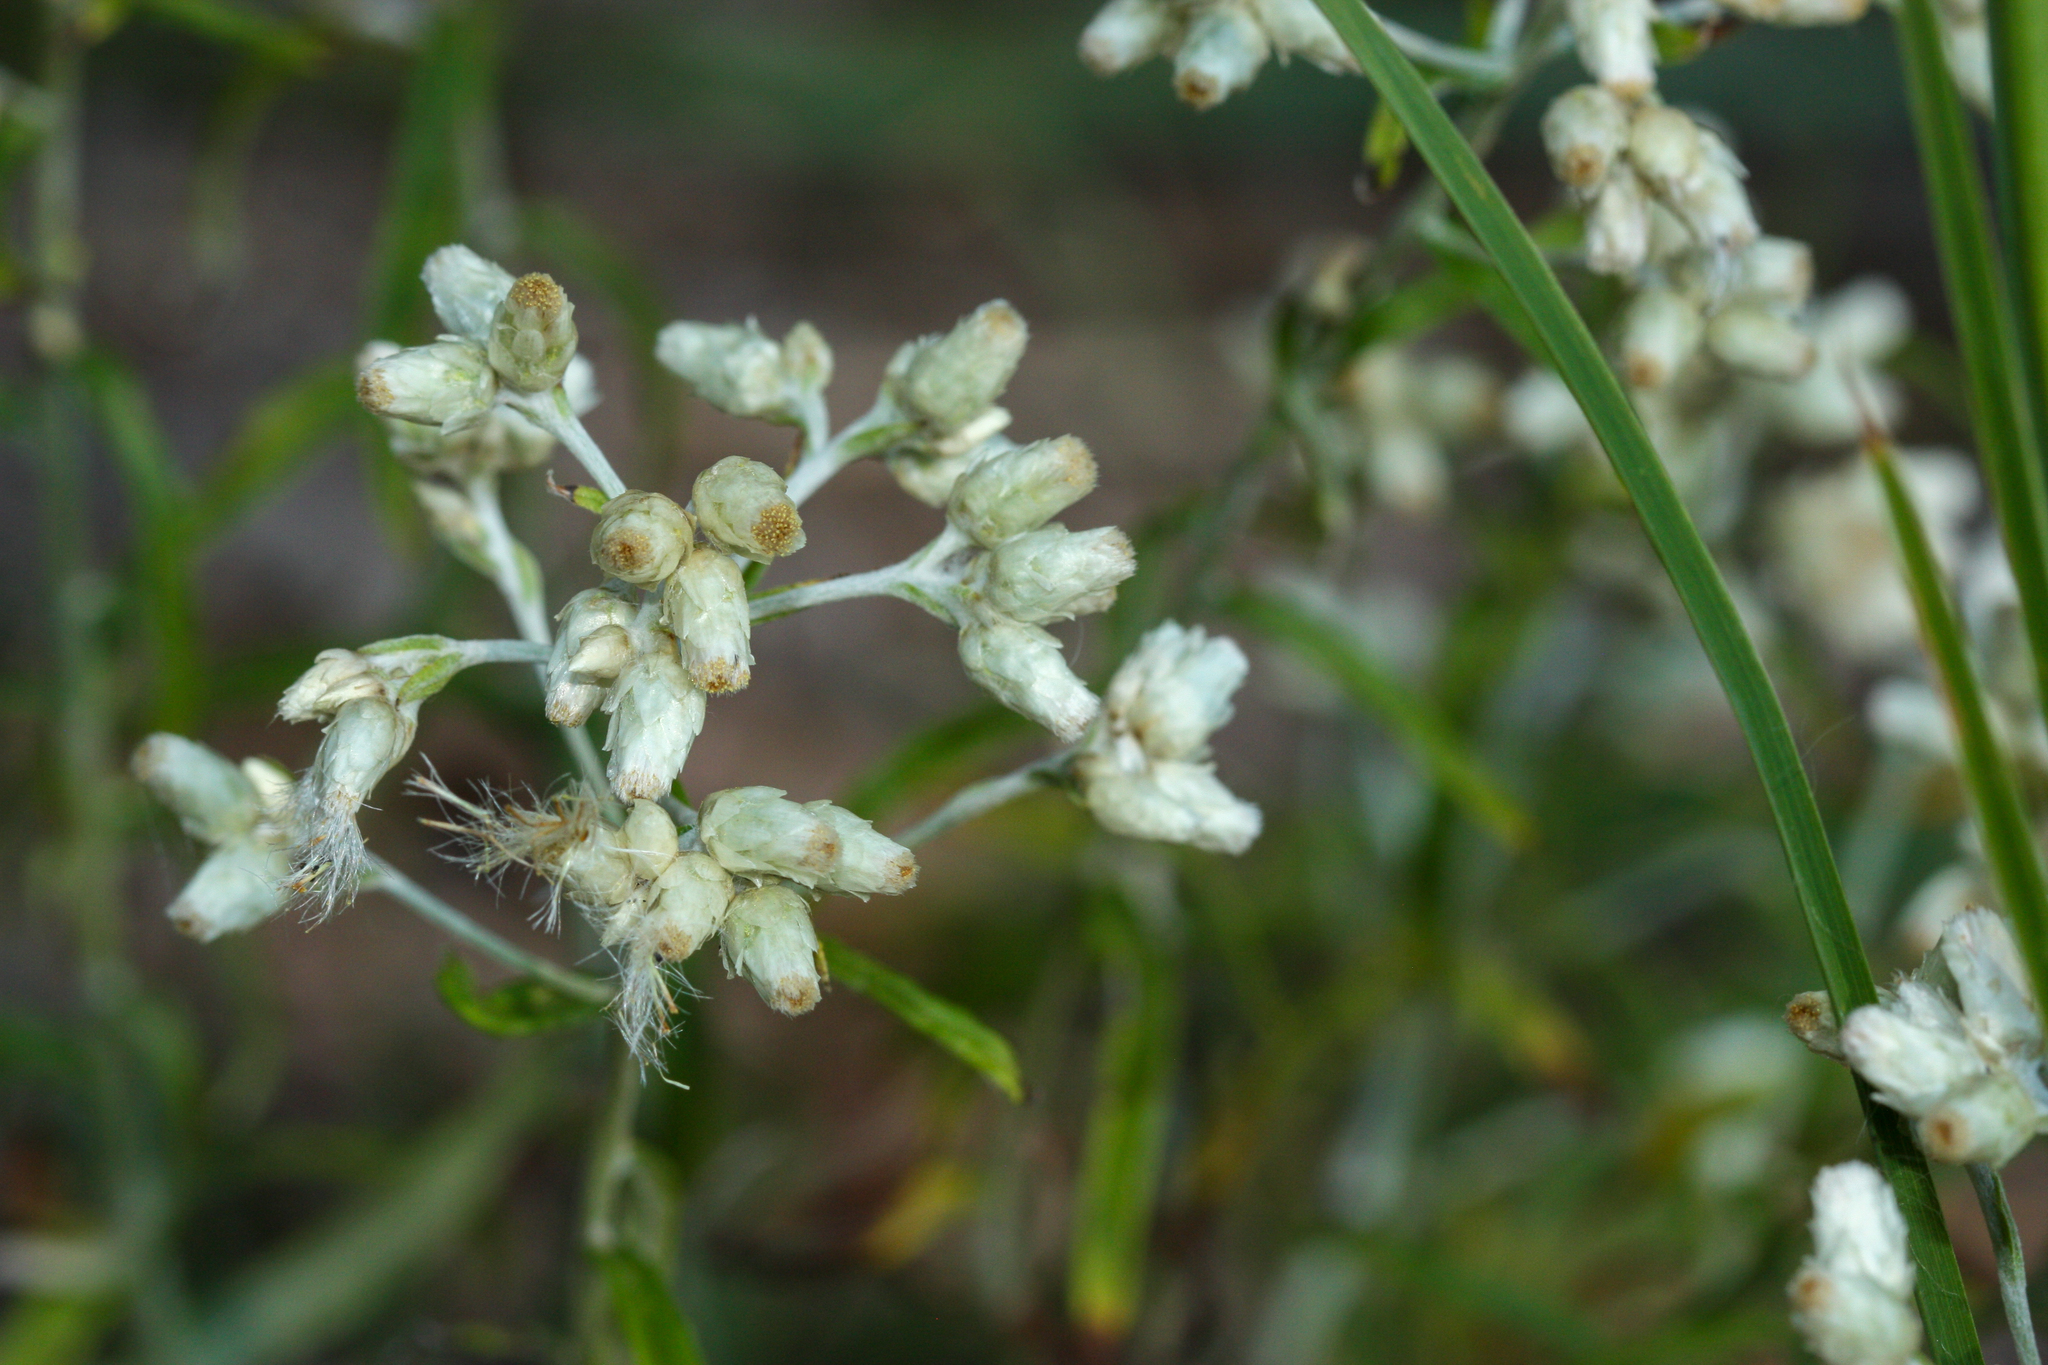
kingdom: Plantae
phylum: Tracheophyta
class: Magnoliopsida
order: Asterales
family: Asteraceae
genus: Pseudognaphalium
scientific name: Pseudognaphalium obtusifolium
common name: Eastern rabbit-tobacco
